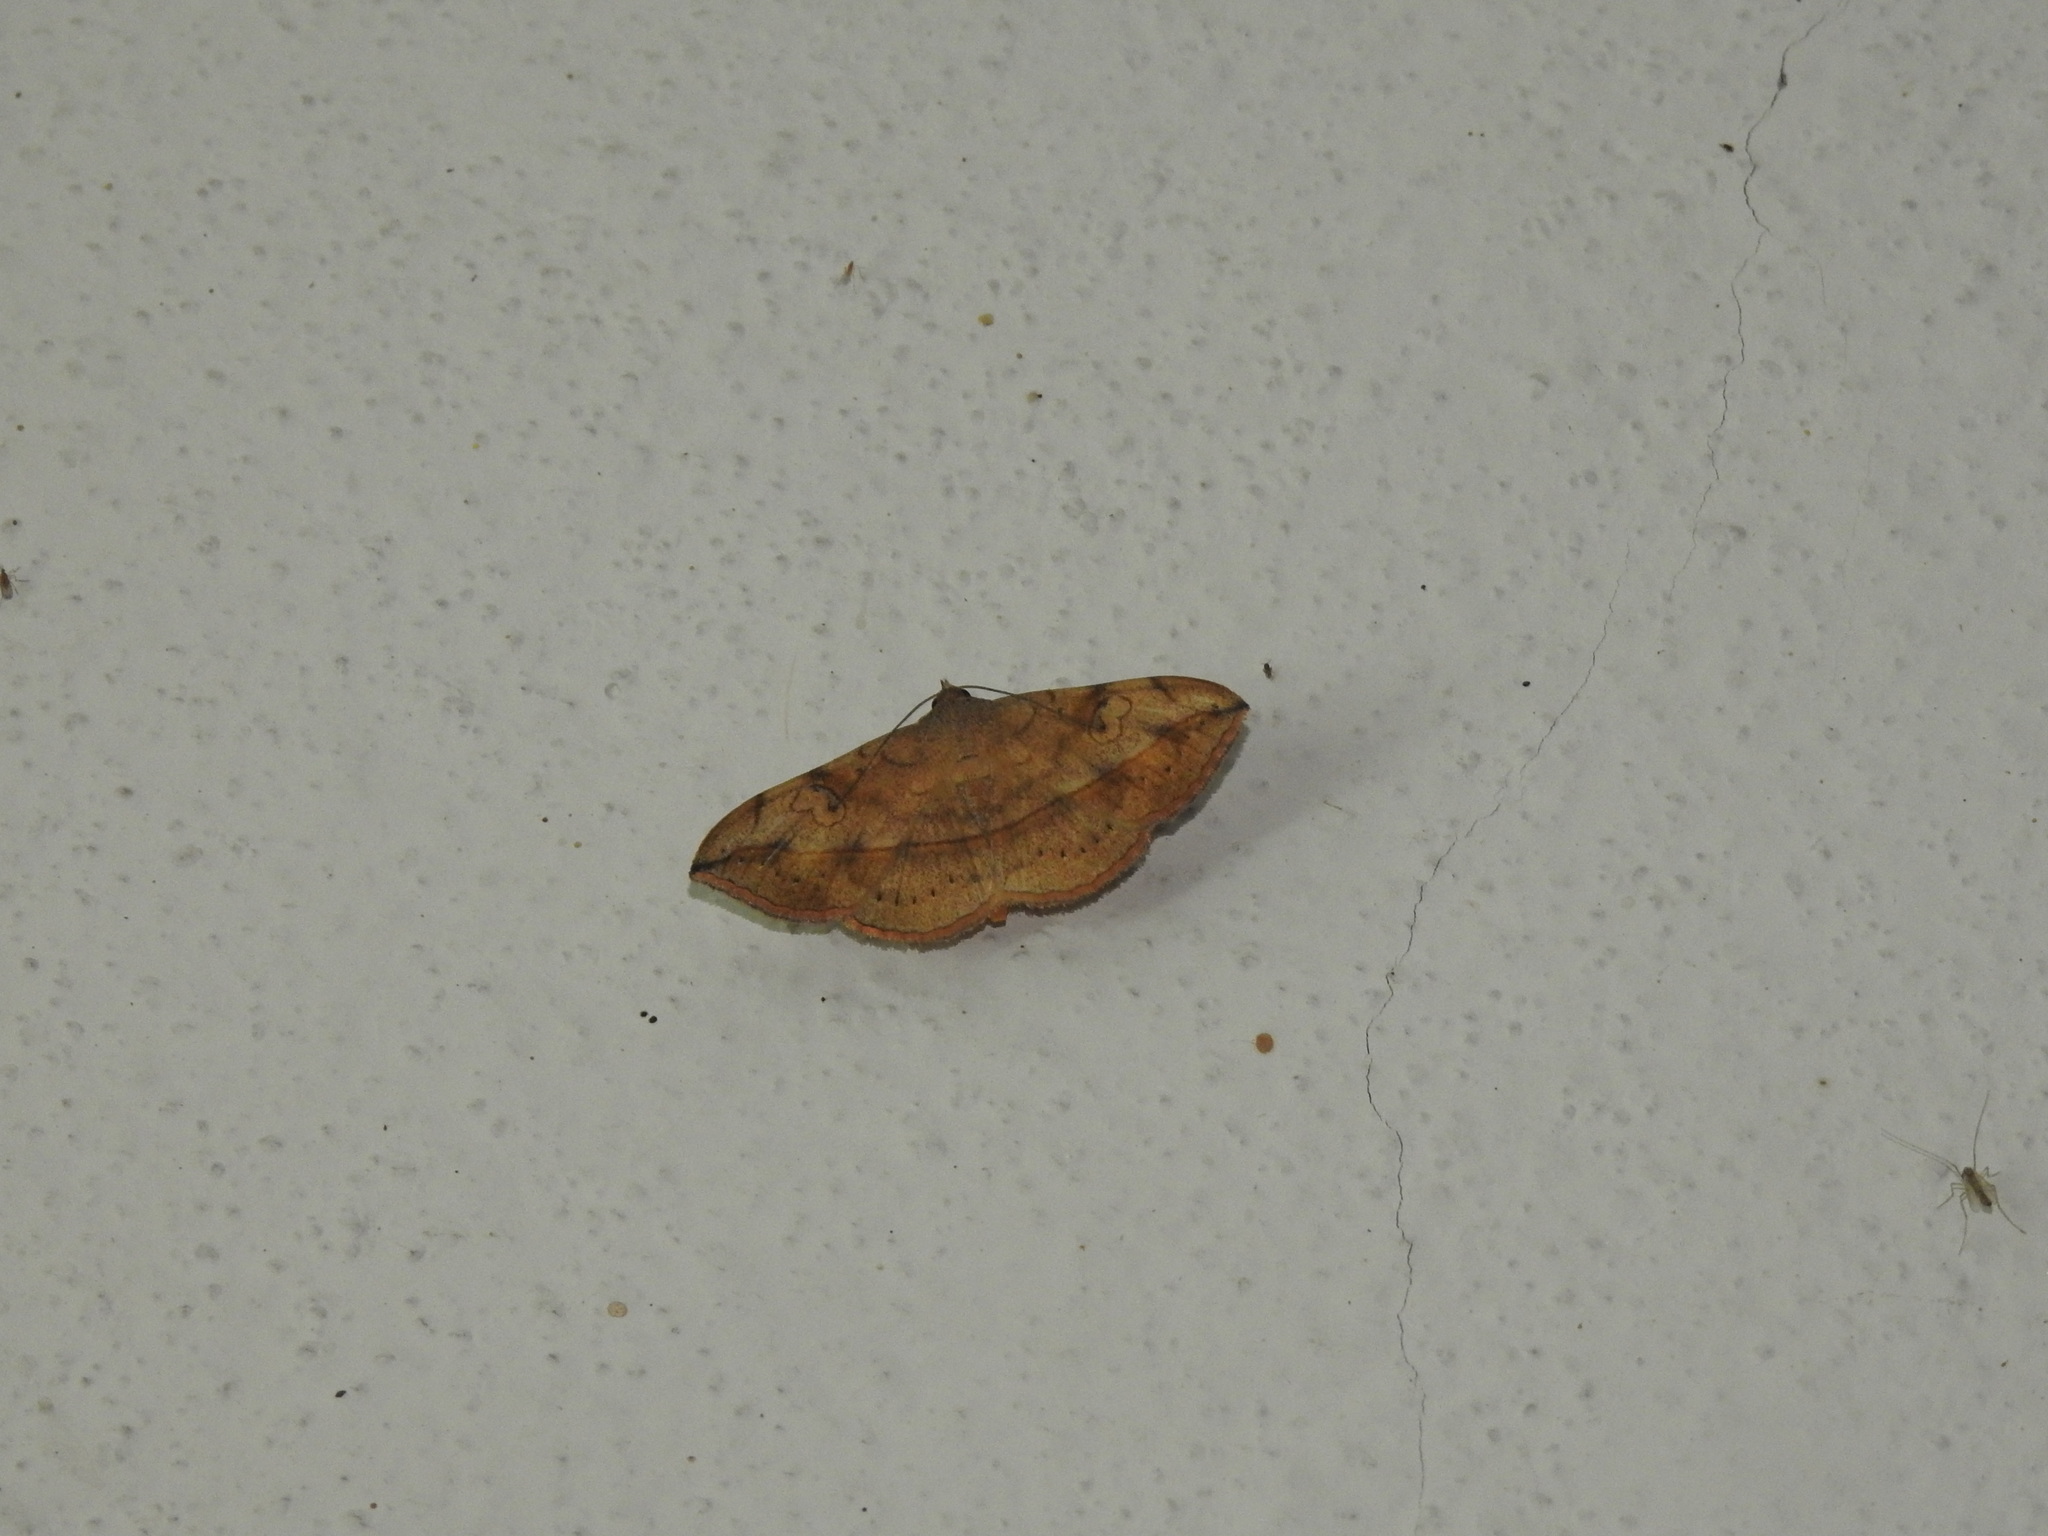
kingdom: Animalia
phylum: Arthropoda
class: Insecta
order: Lepidoptera
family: Erebidae
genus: Anticarsia
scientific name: Anticarsia irrorata
